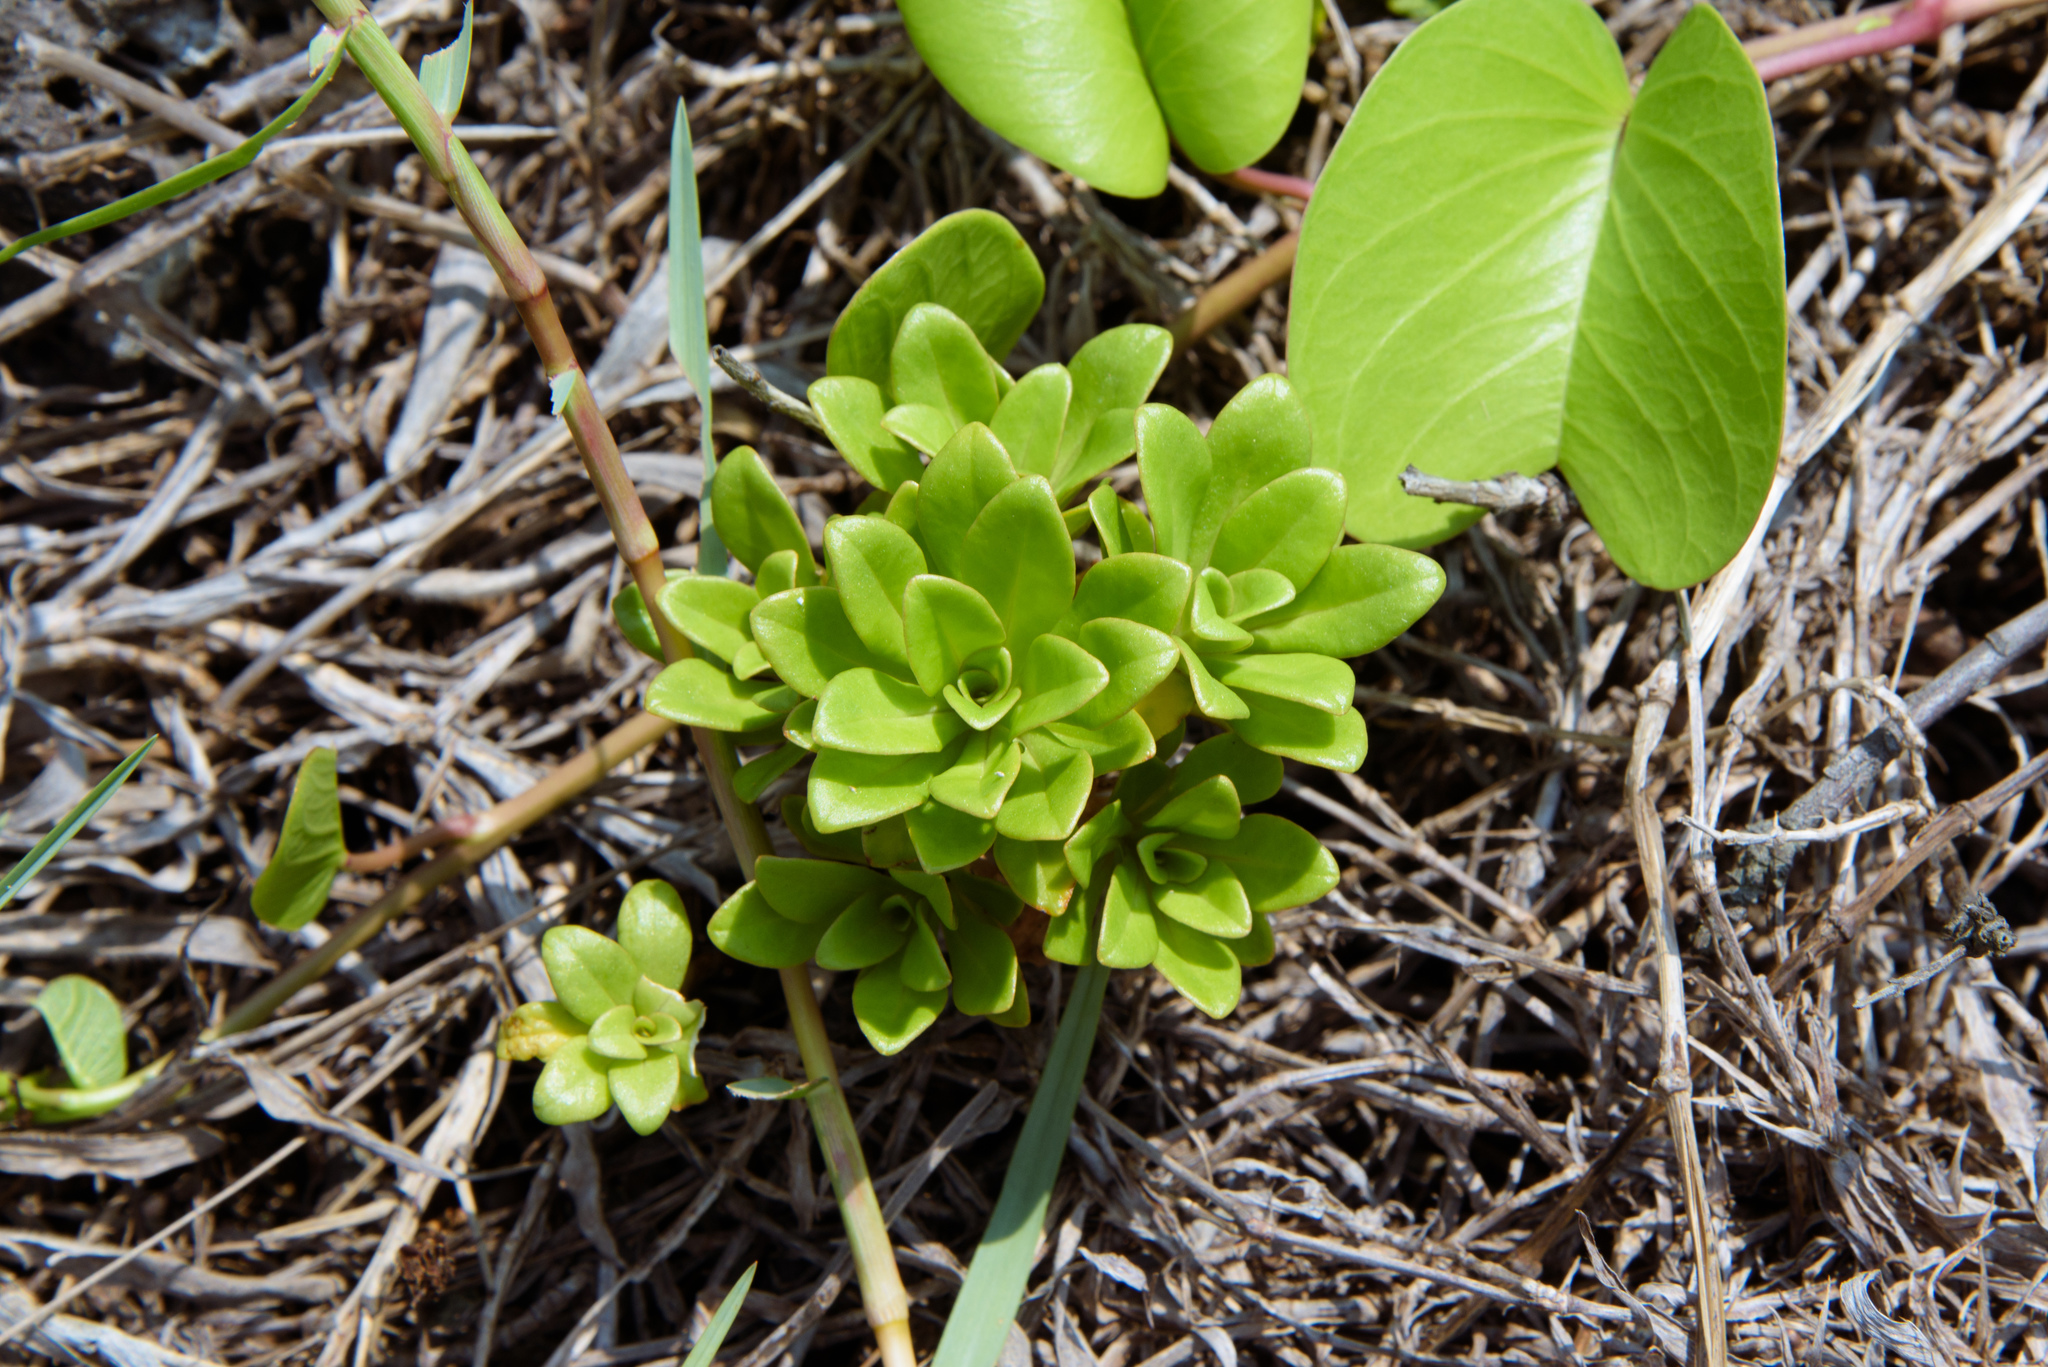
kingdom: Plantae
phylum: Tracheophyta
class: Magnoliopsida
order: Ericales
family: Primulaceae
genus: Lysimachia
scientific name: Lysimachia mauritiana
